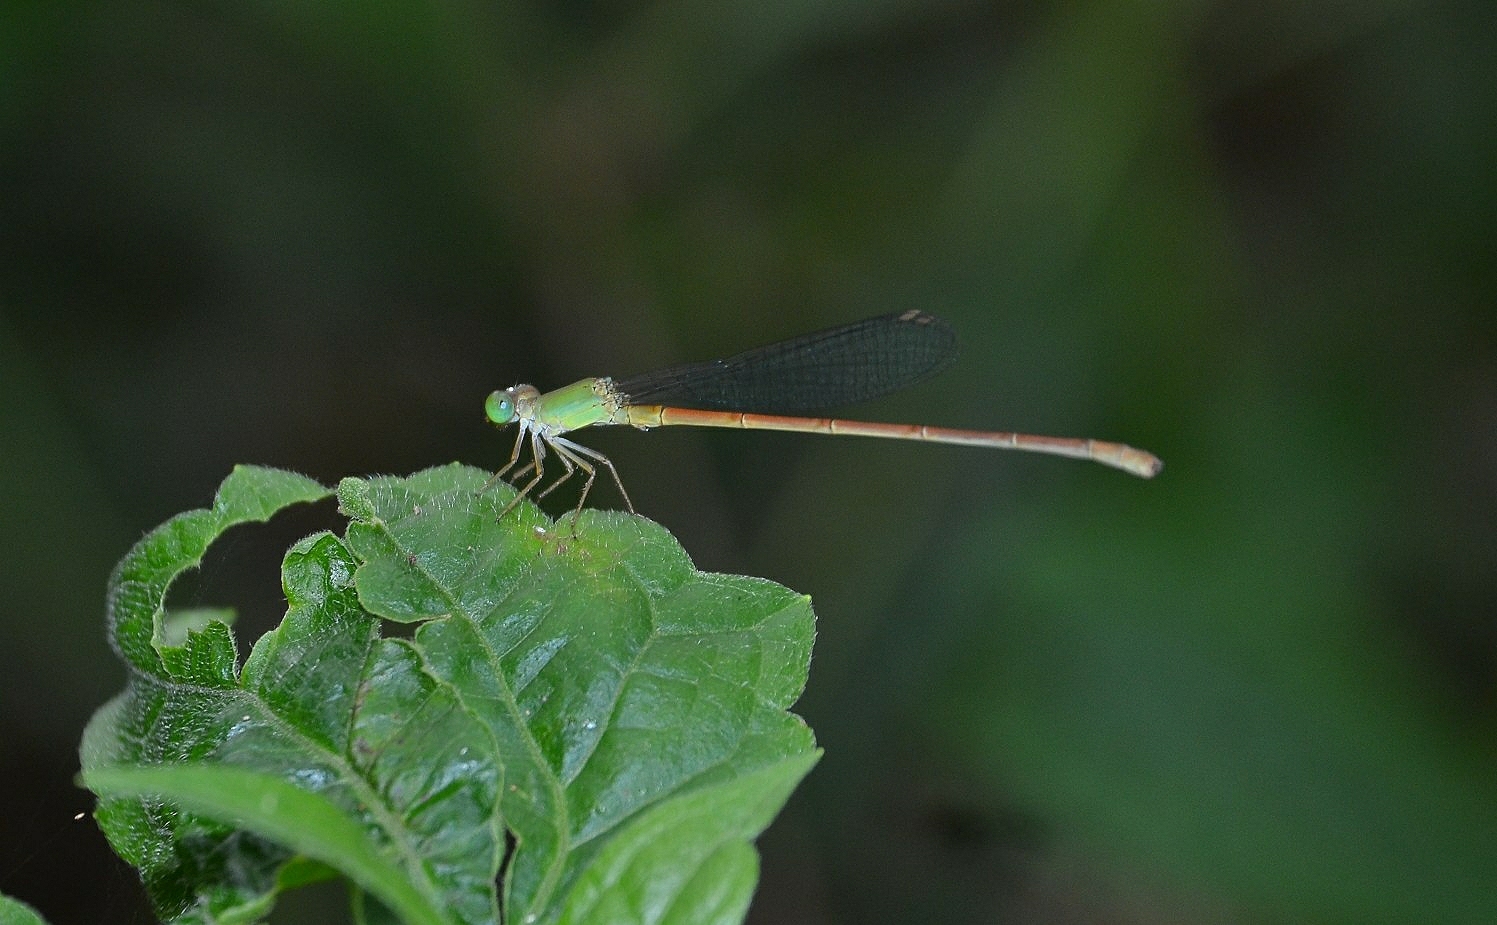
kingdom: Animalia
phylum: Arthropoda
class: Insecta
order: Odonata
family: Coenagrionidae
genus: Ceriagrion
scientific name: Ceriagrion olivaceum
